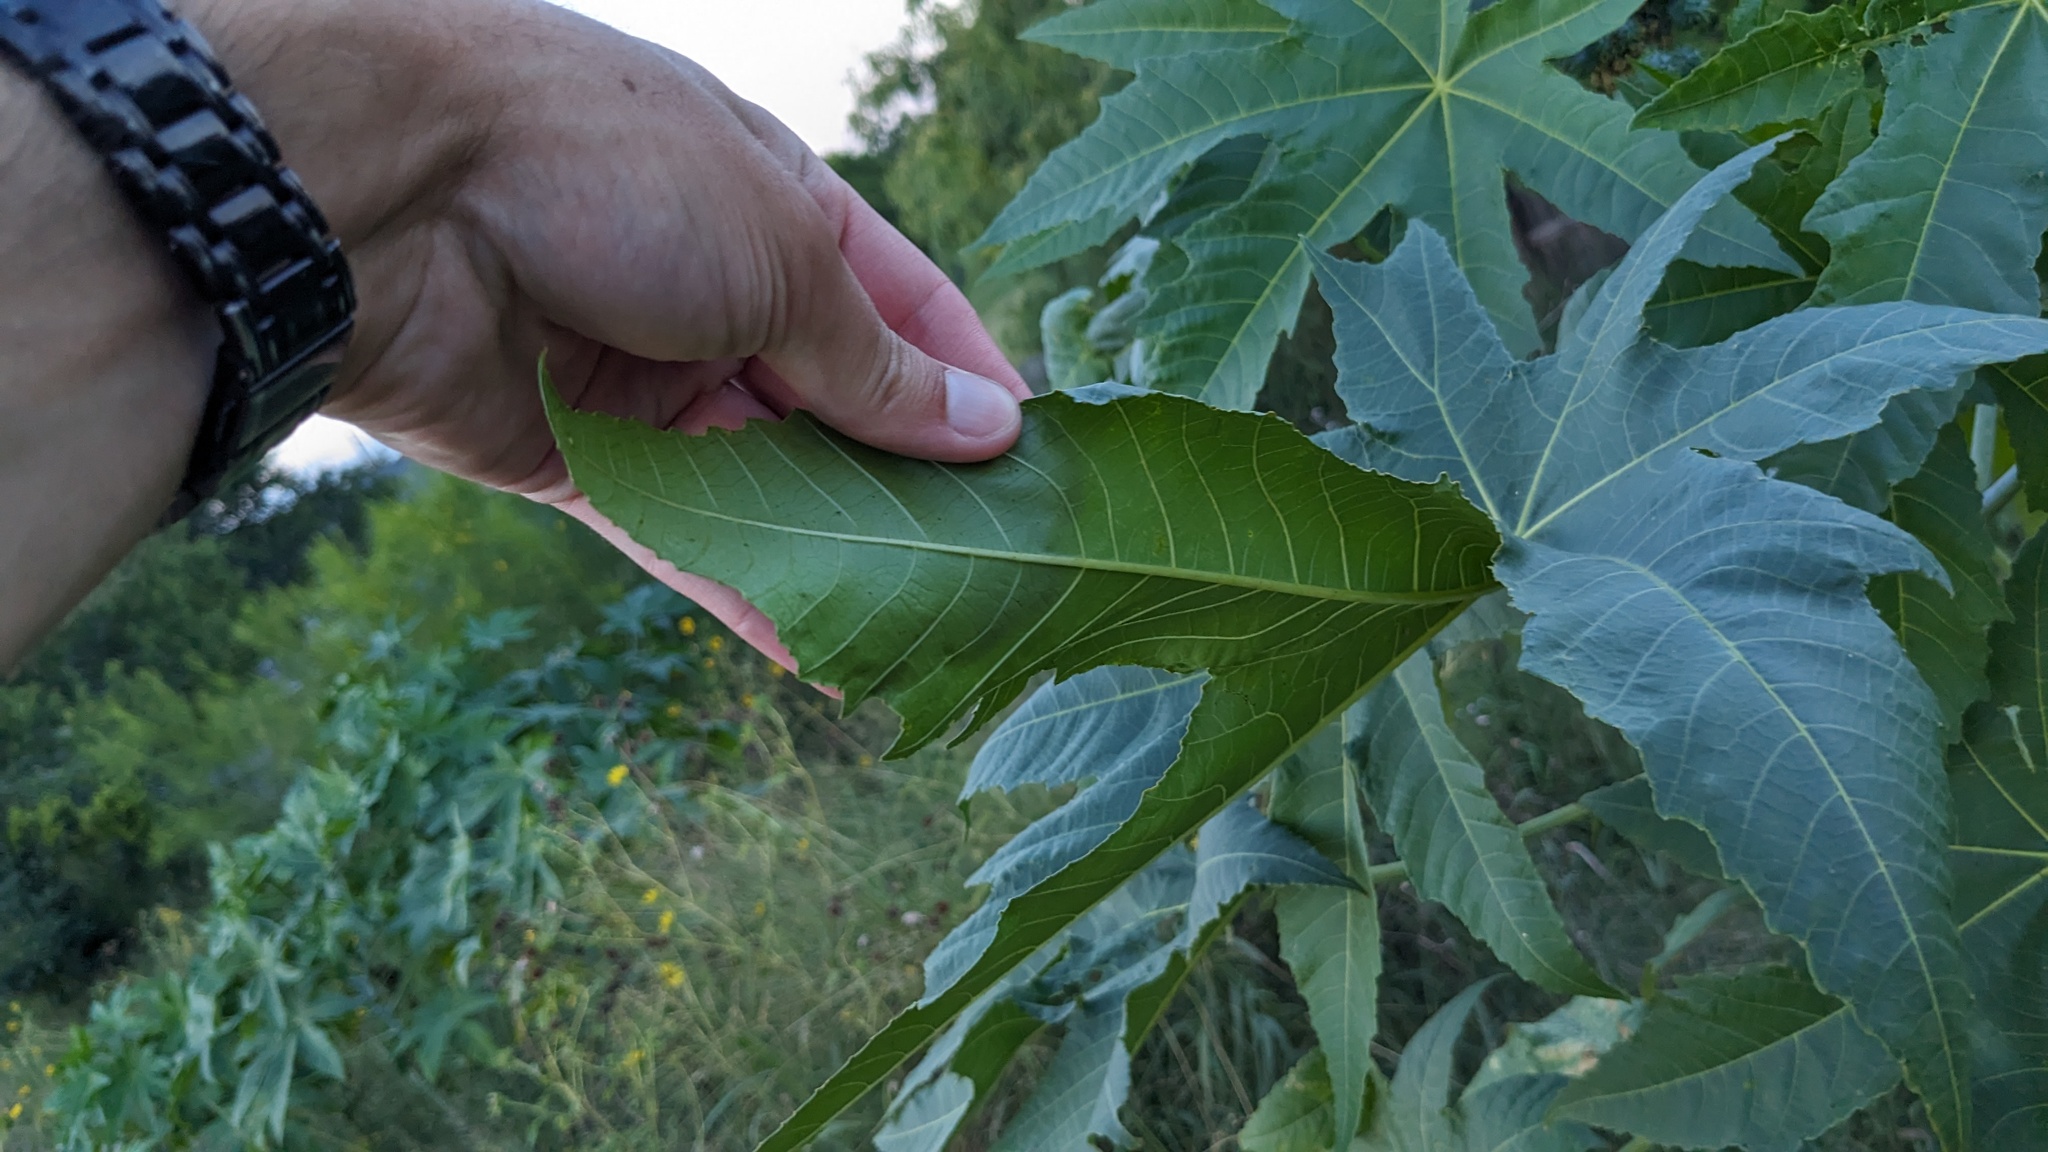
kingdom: Plantae
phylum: Tracheophyta
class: Magnoliopsida
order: Malpighiales
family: Euphorbiaceae
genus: Ricinus
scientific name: Ricinus communis
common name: Castor-oil-plant
